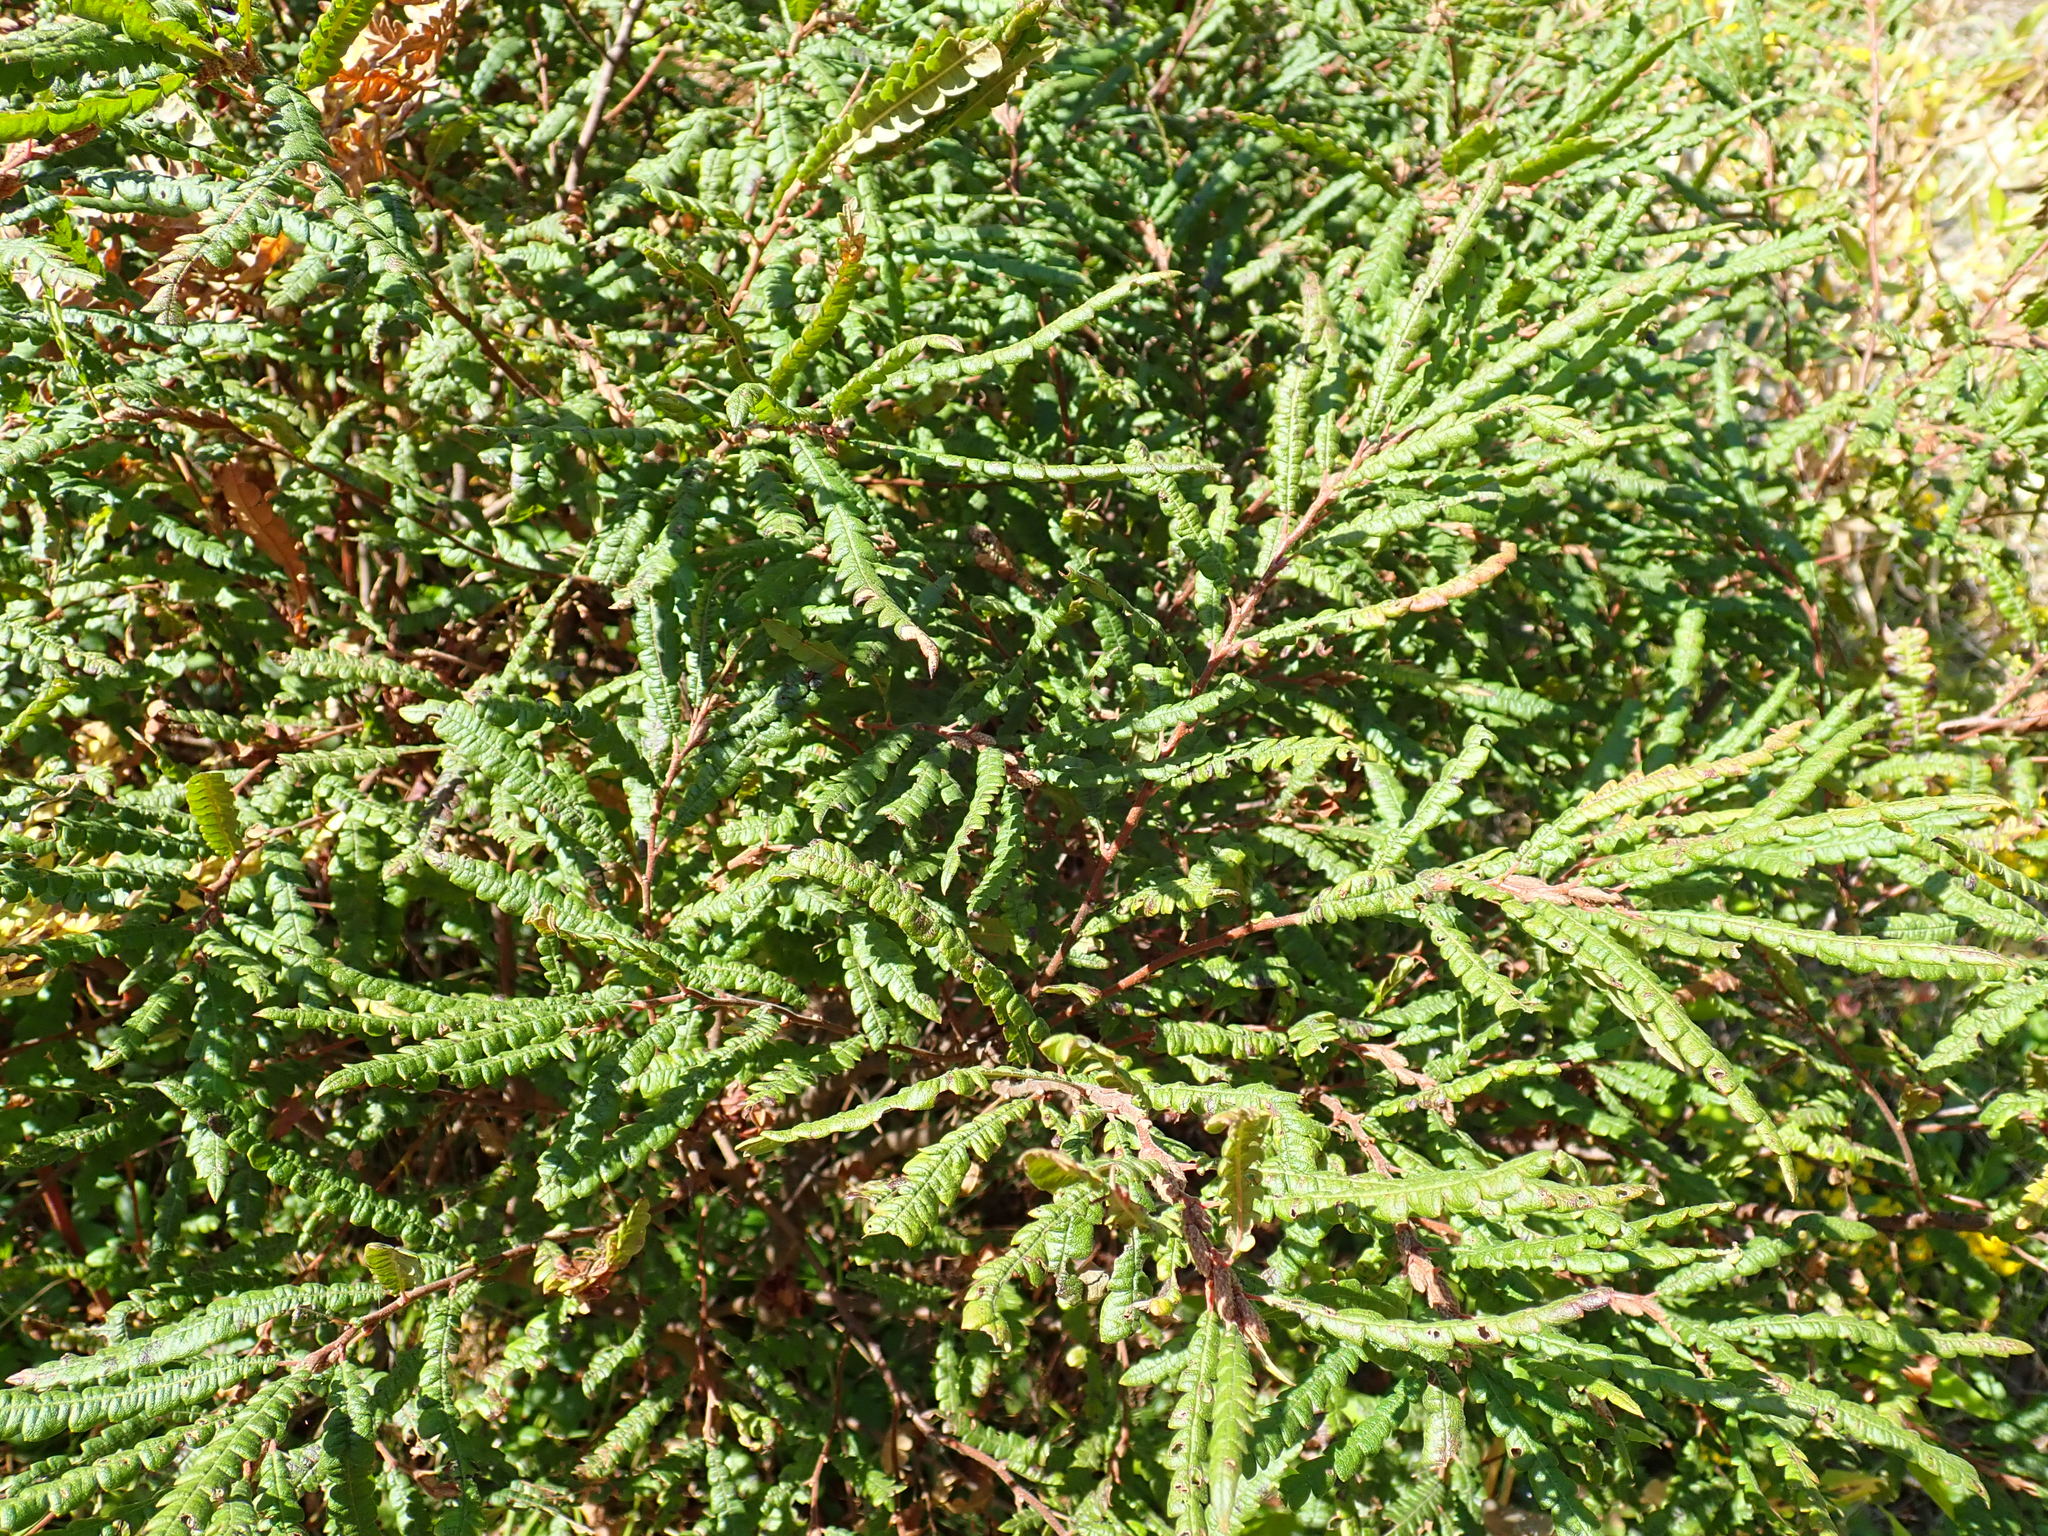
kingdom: Plantae
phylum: Tracheophyta
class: Magnoliopsida
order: Fagales
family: Myricaceae
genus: Comptonia
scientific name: Comptonia peregrina
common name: Sweet-fern
